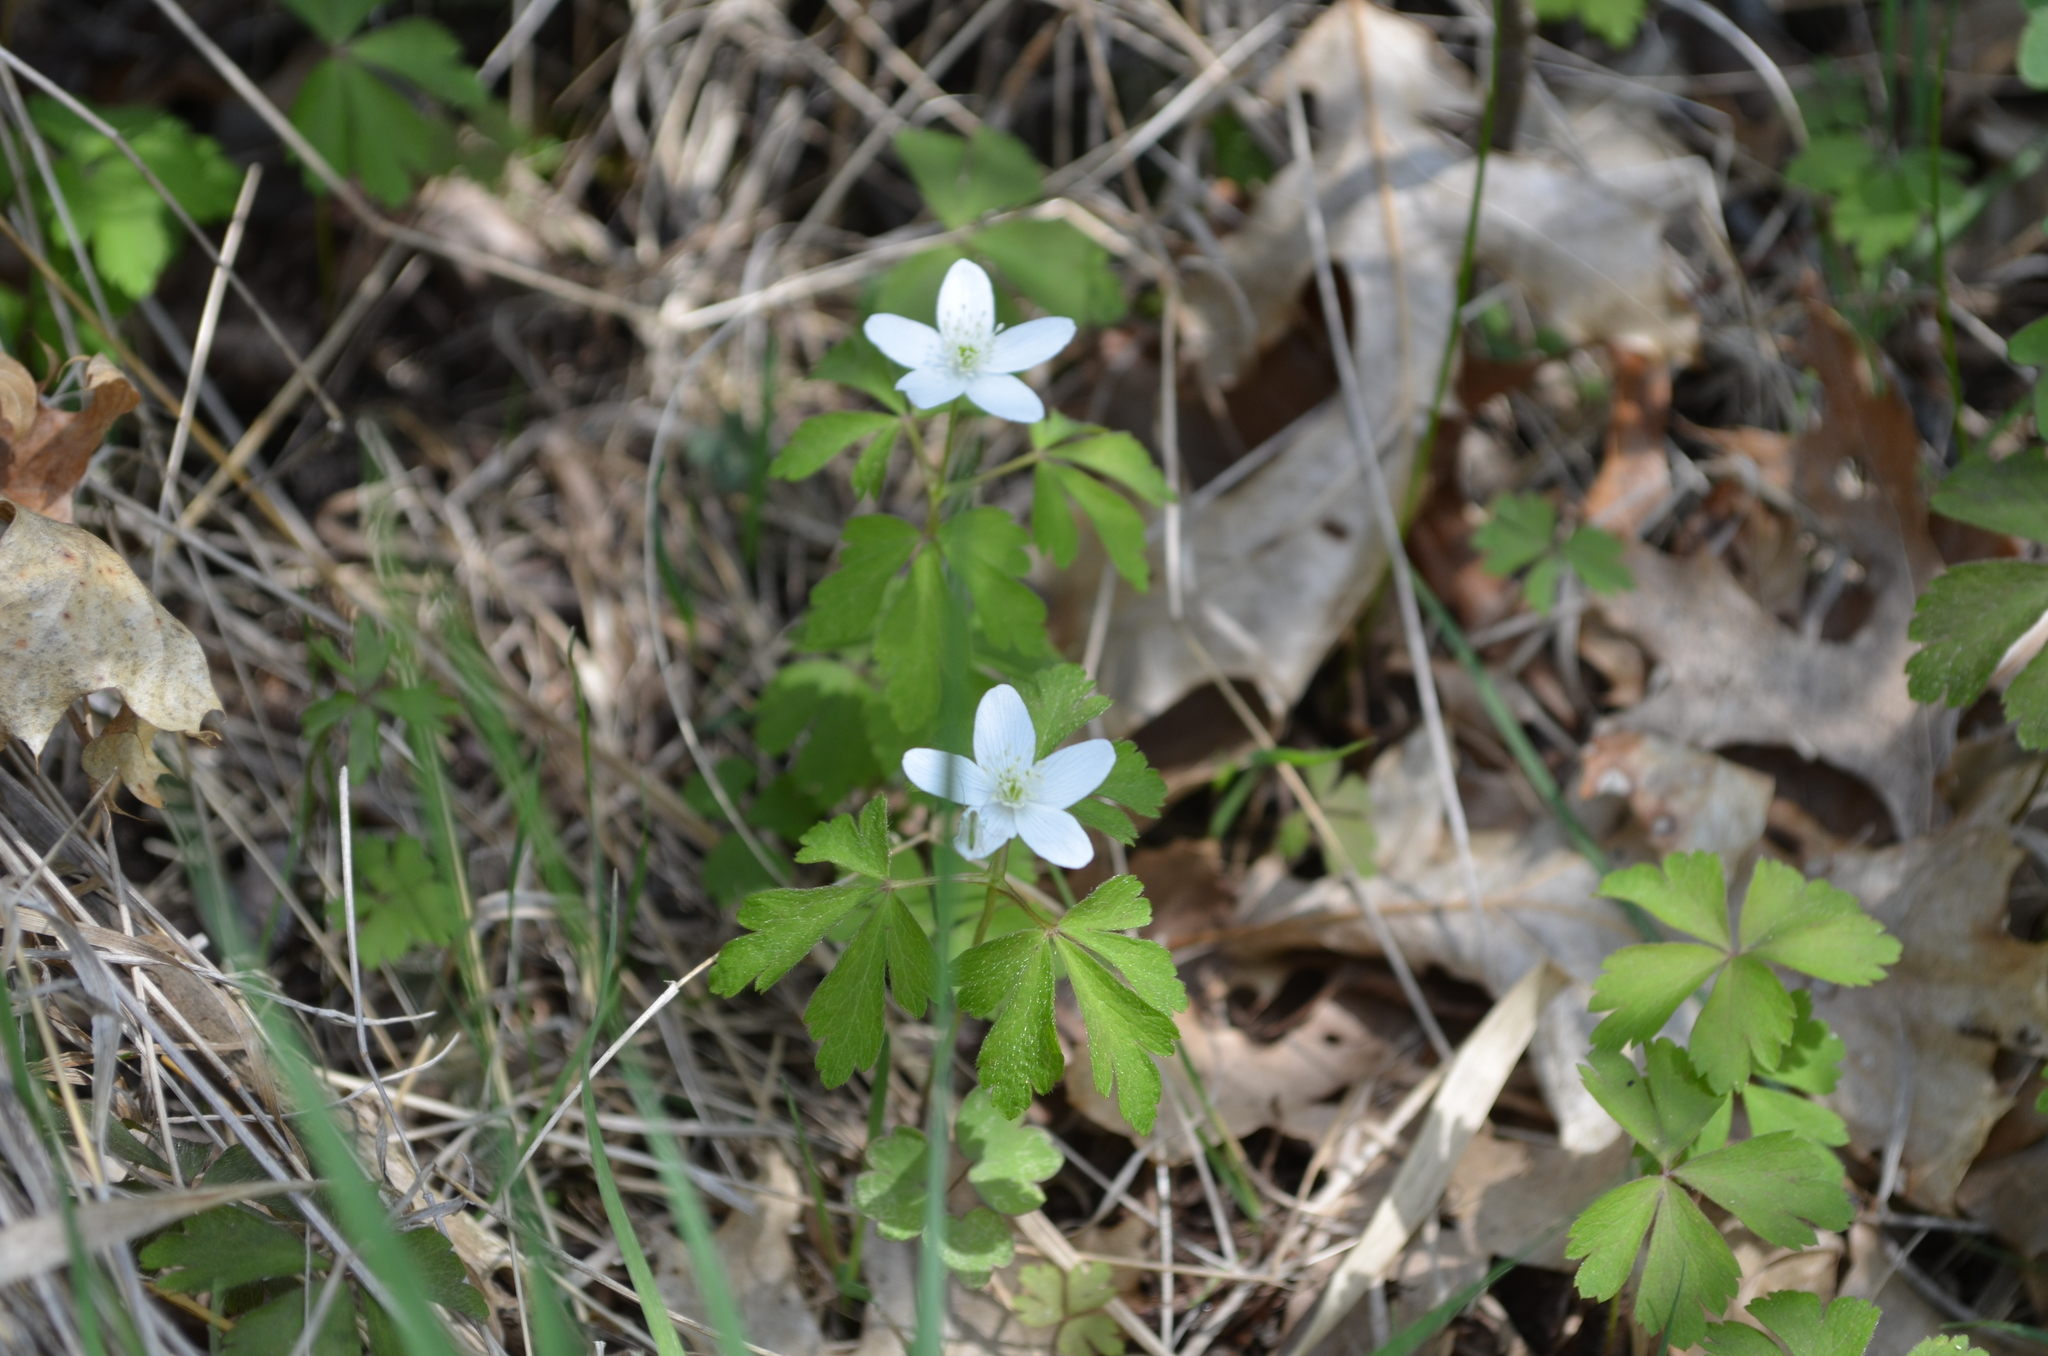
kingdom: Plantae
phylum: Tracheophyta
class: Magnoliopsida
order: Ranunculales
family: Ranunculaceae
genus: Anemone
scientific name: Anemone quinquefolia
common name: Wood anemone
